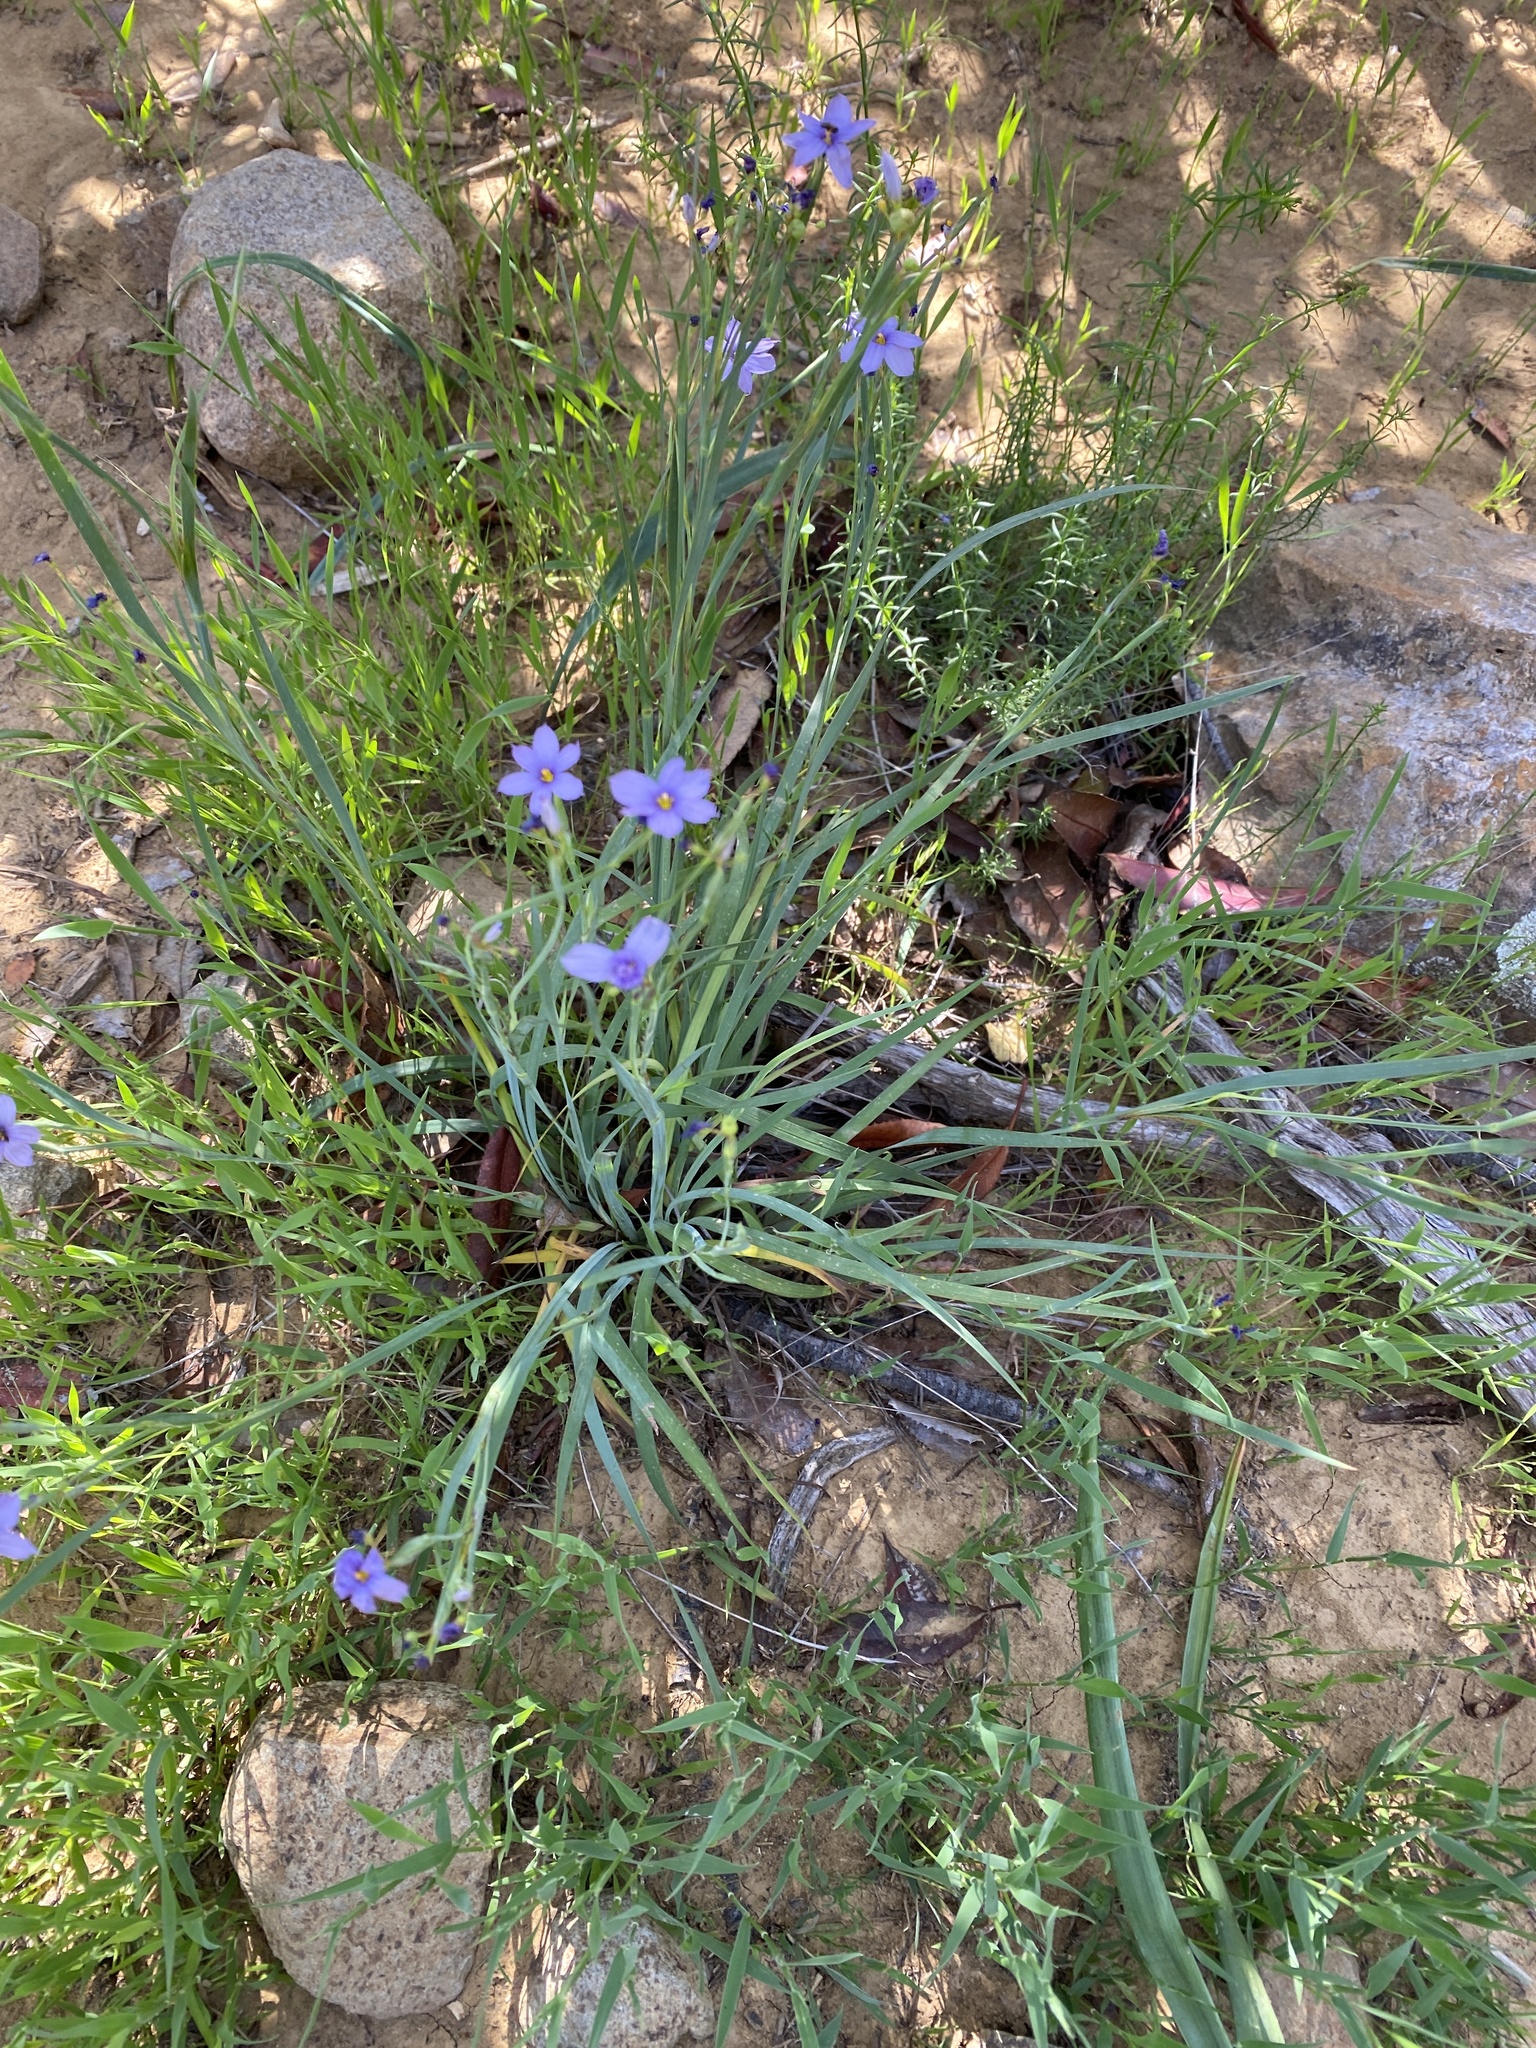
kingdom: Plantae
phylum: Tracheophyta
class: Liliopsida
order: Asparagales
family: Iridaceae
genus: Sisyrinchium
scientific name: Sisyrinchium bellum
